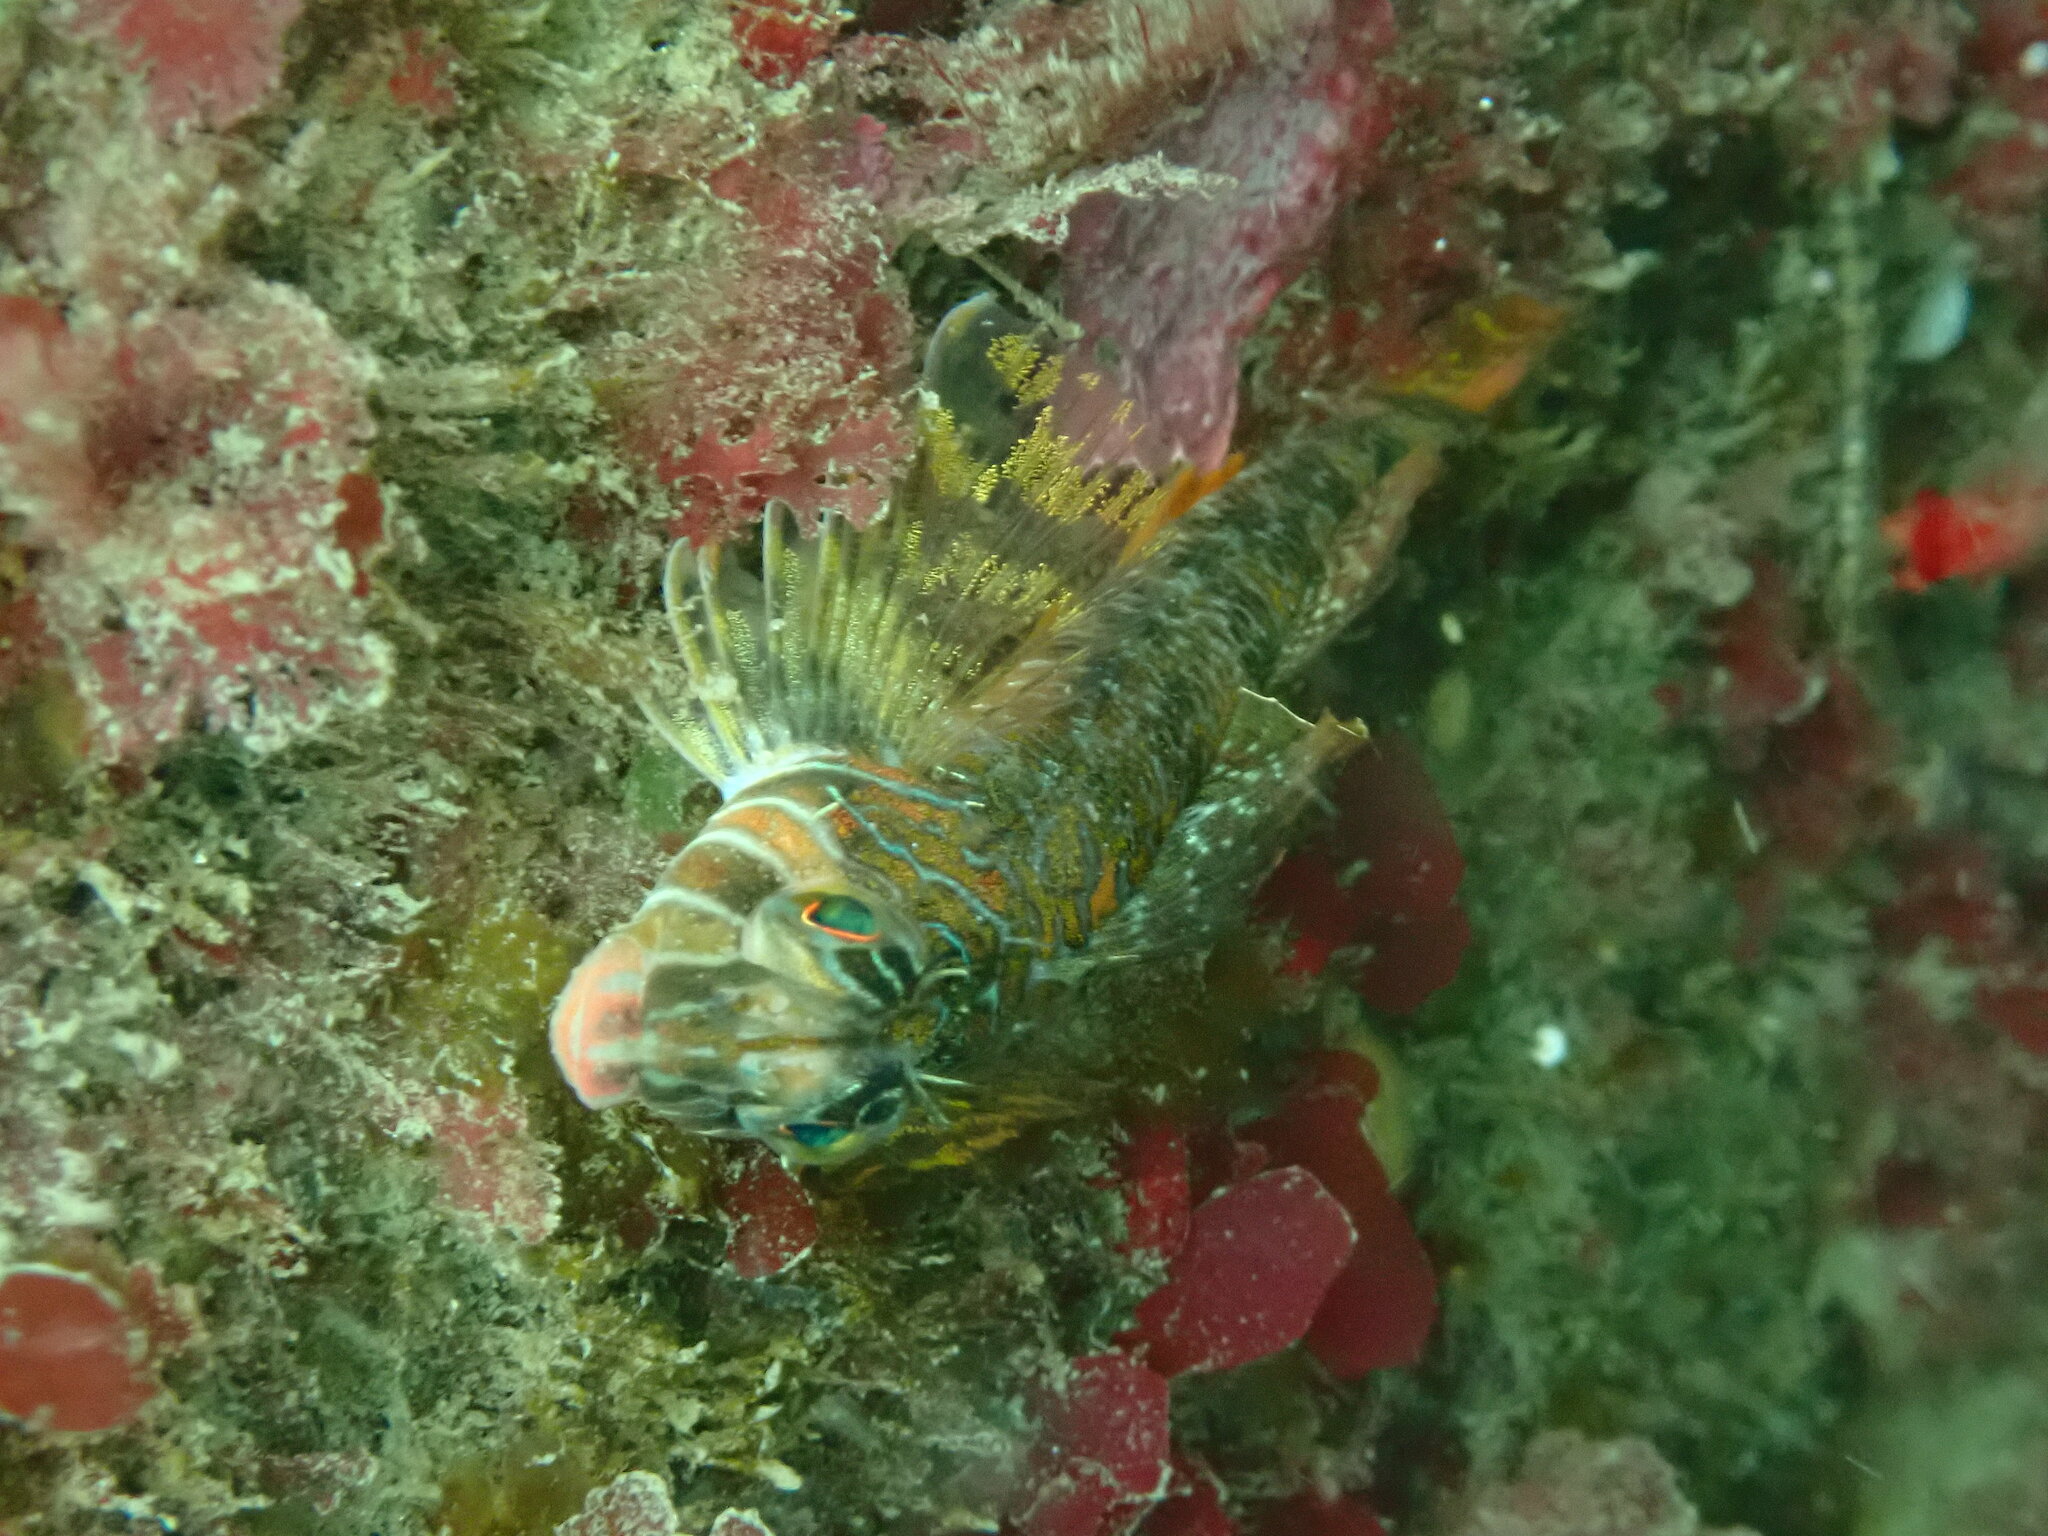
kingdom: Animalia
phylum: Chordata
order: Scorpaeniformes
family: Cottidae
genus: Jordania
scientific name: Jordania zonope
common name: Longfin sculpin
